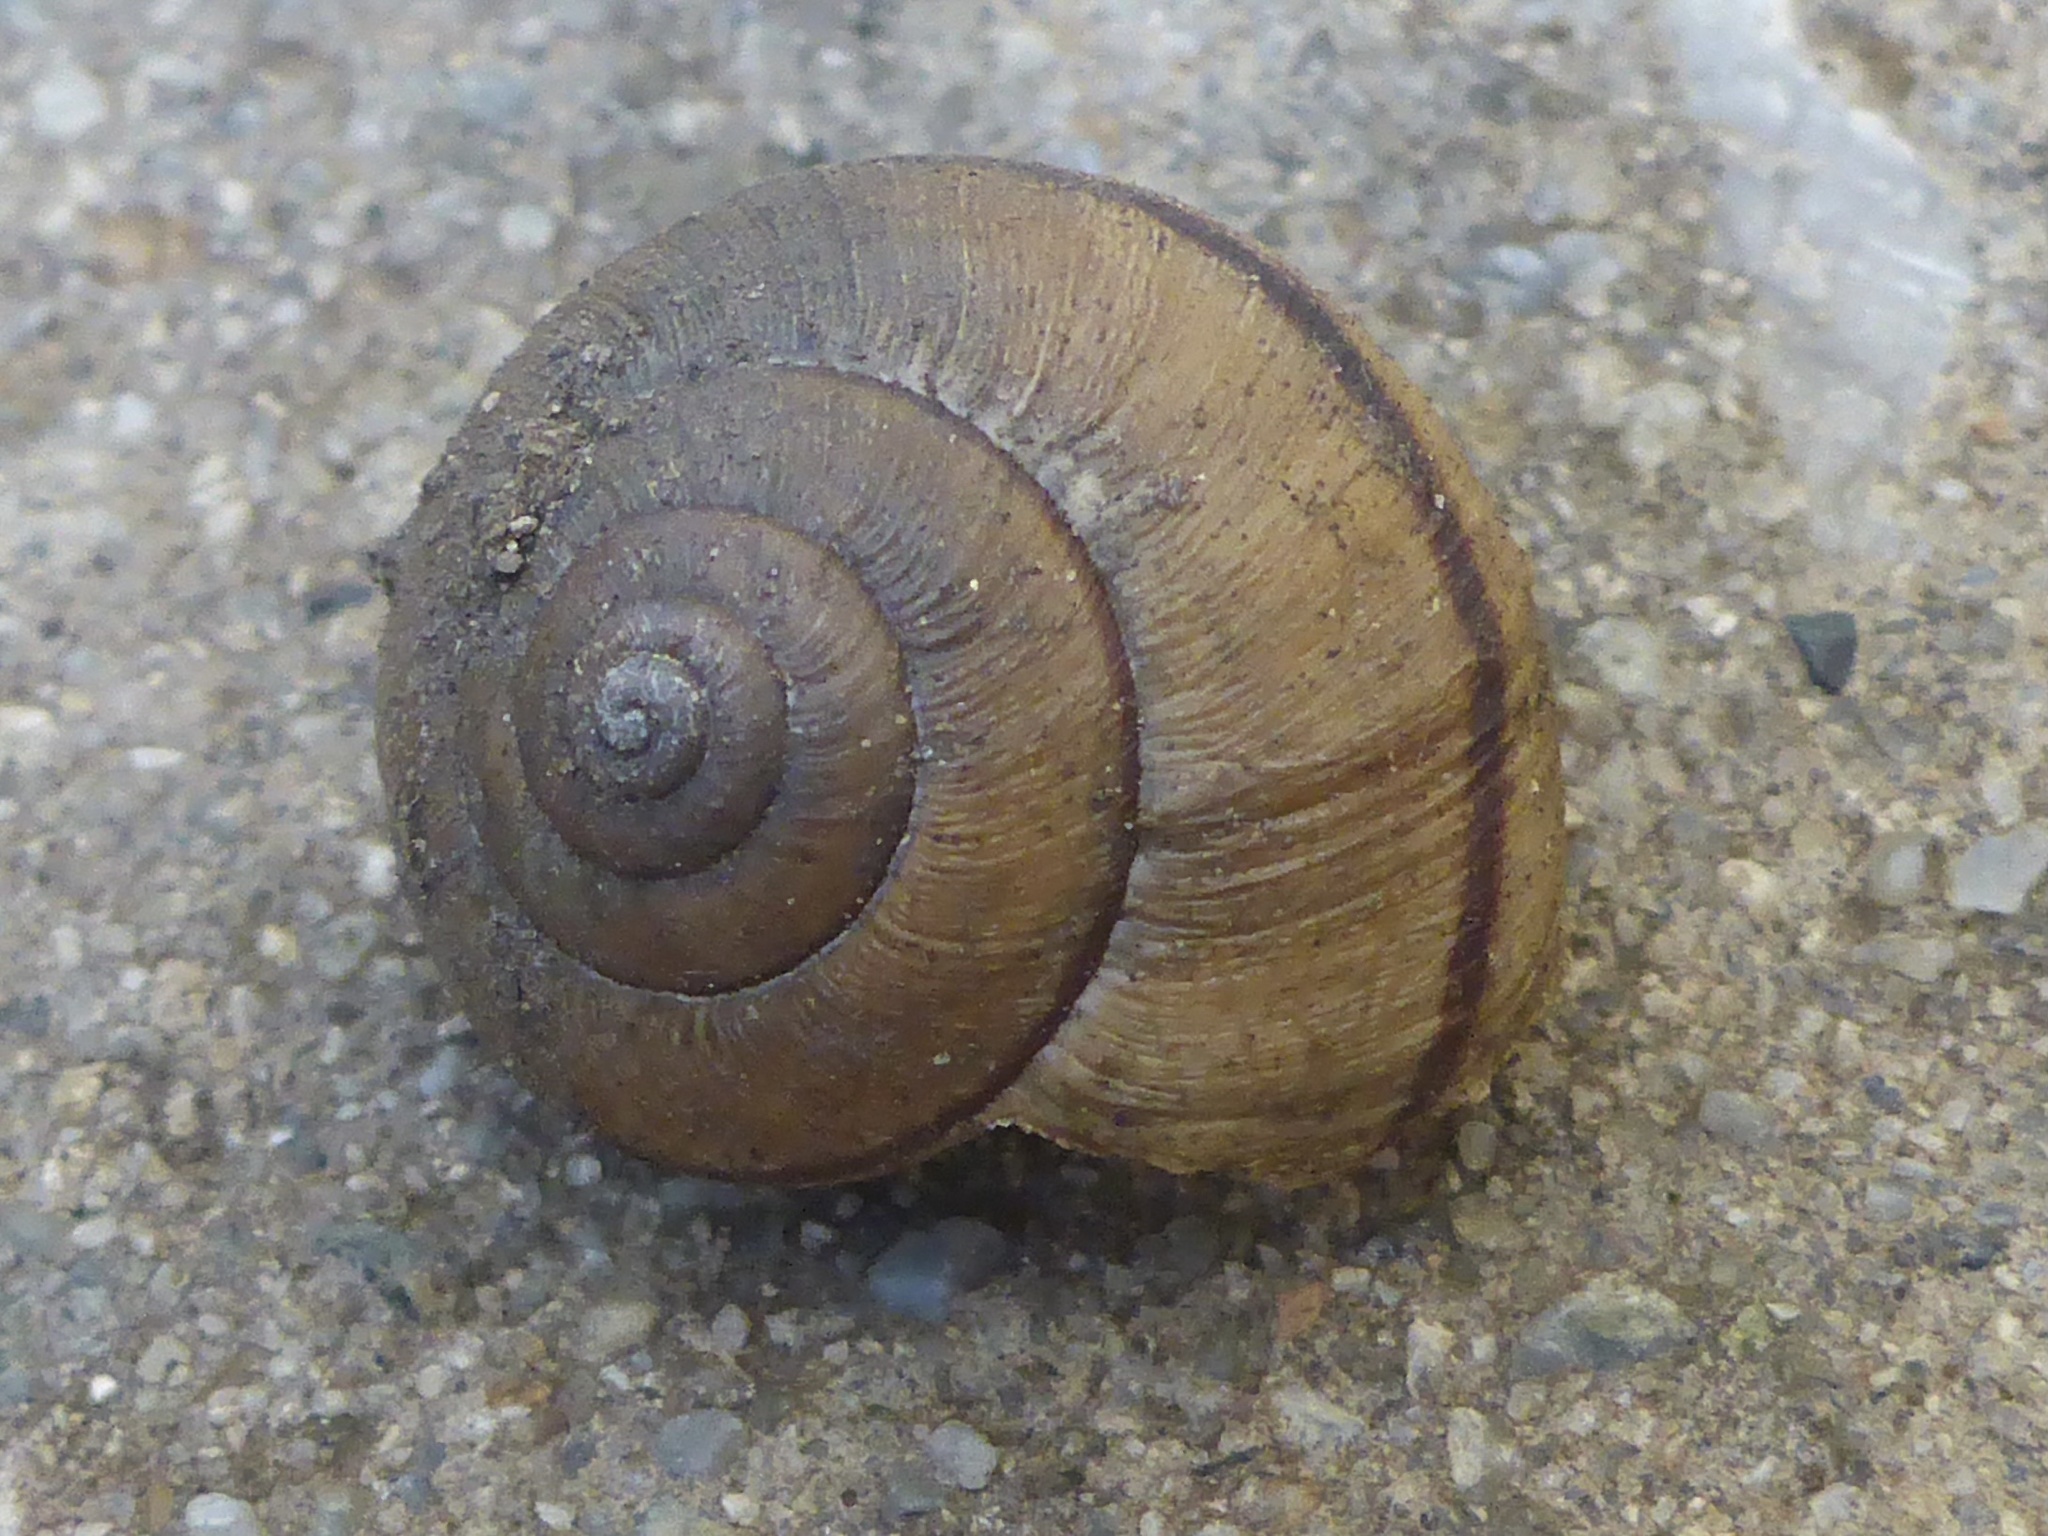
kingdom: Animalia
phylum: Mollusca
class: Gastropoda
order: Stylommatophora
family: Xanthonychidae
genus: Helminthoglypta
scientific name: Helminthoglypta nickliniana
